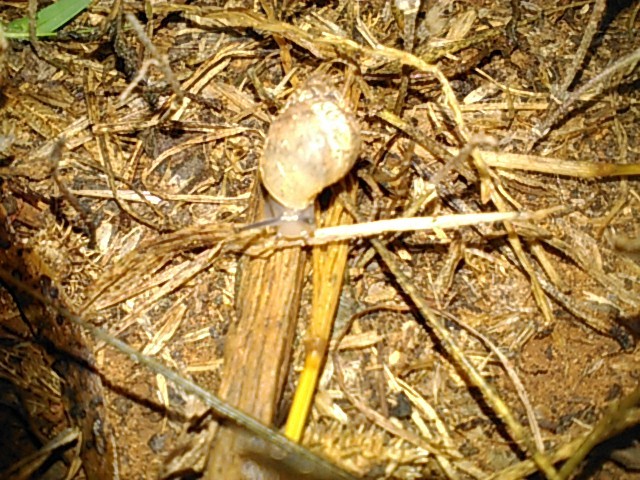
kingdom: Animalia
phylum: Mollusca
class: Gastropoda
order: Stylommatophora
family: Bulimulidae
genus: Rabdotus
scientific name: Rabdotus dealbatus
